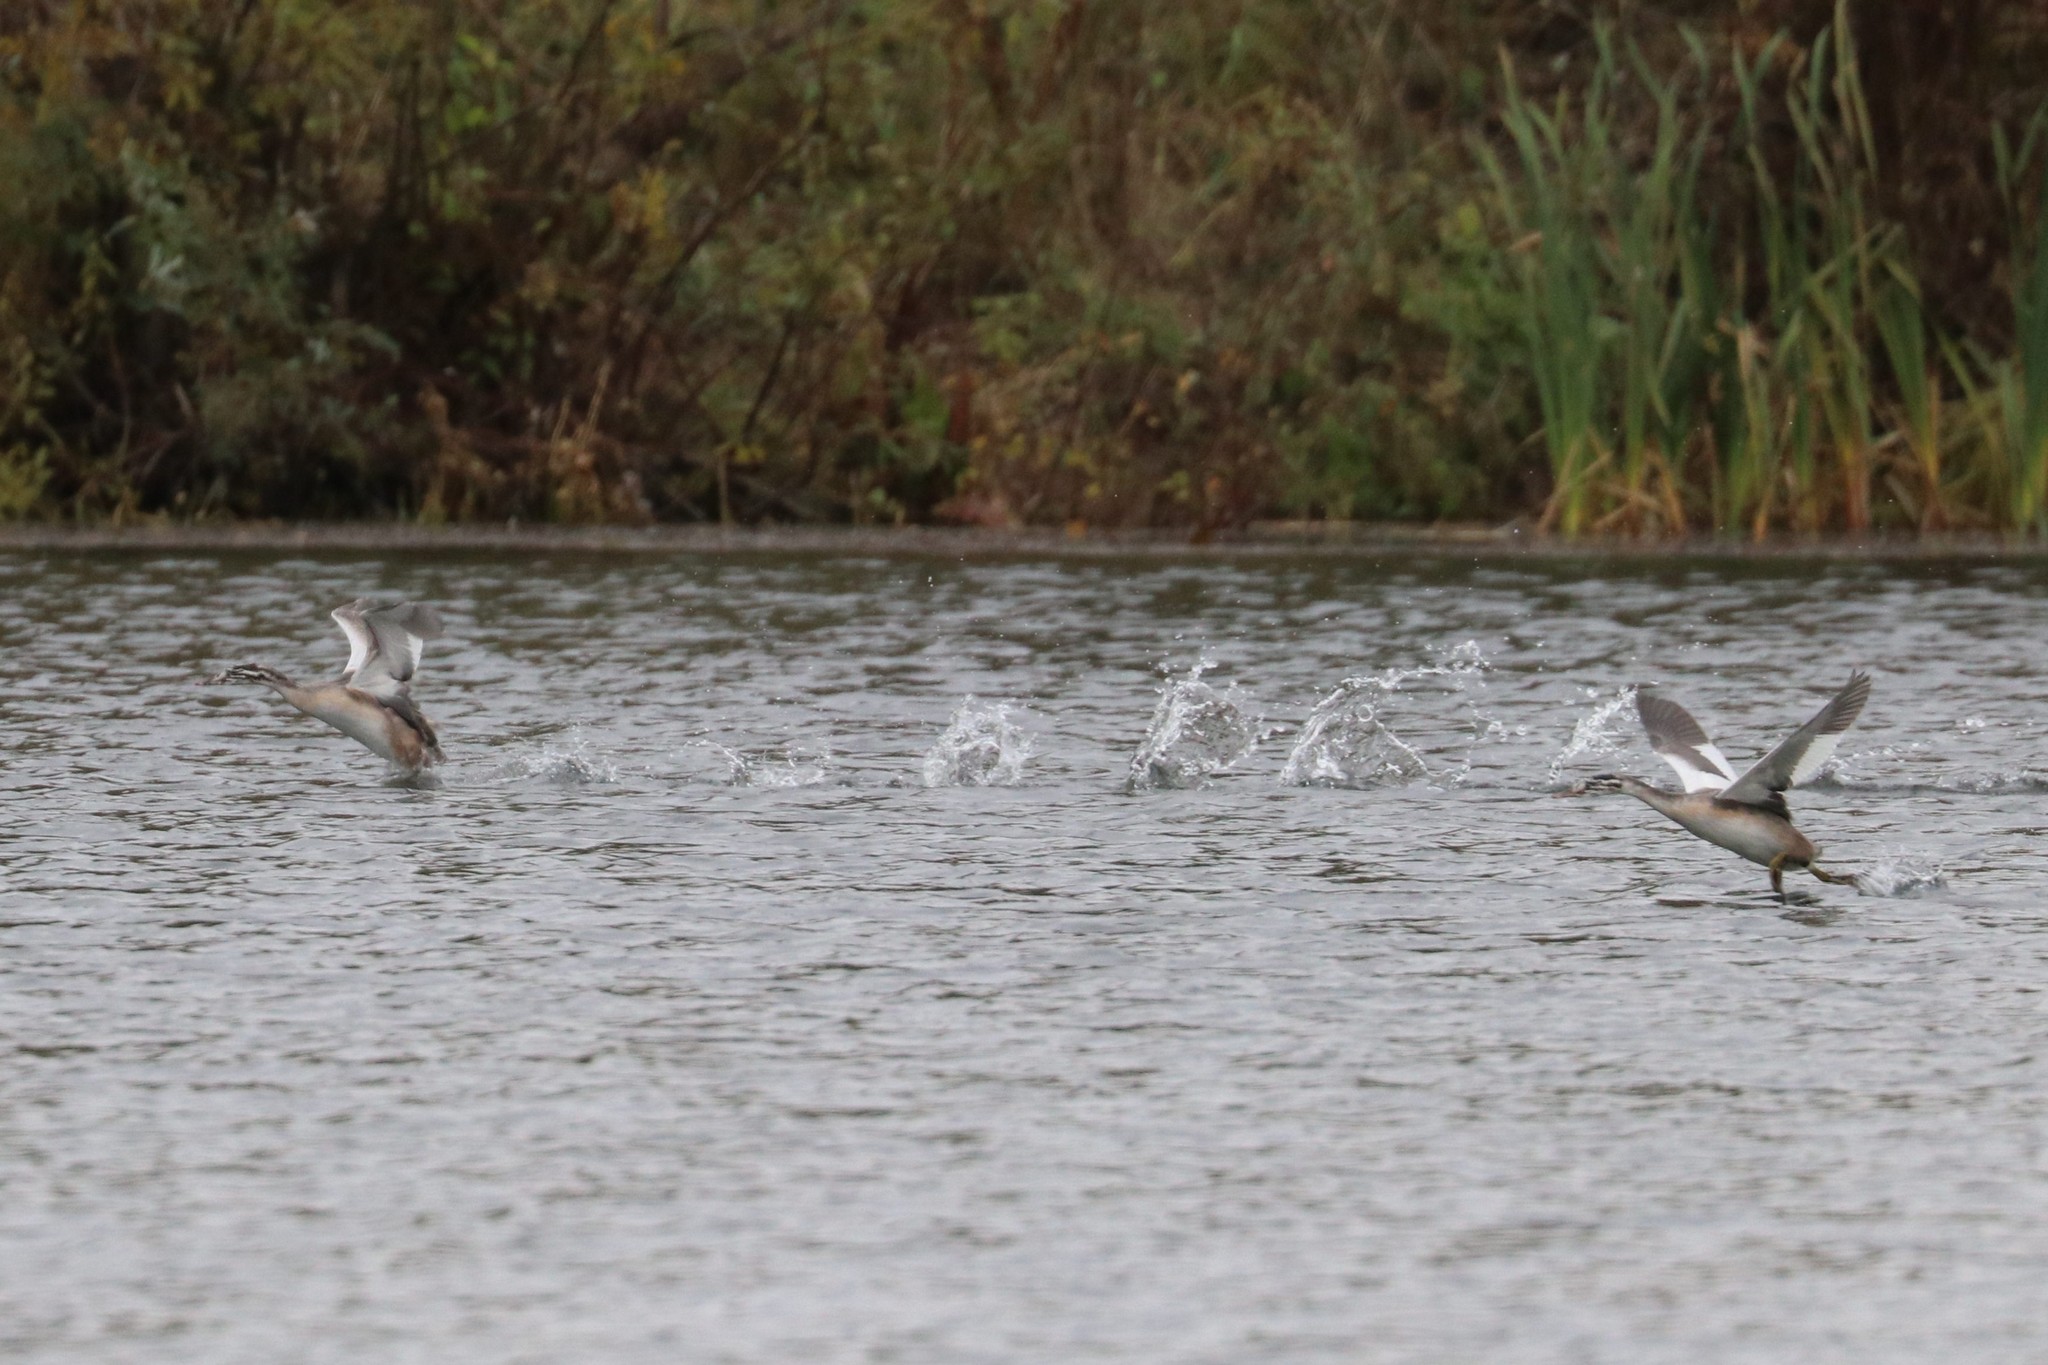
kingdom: Animalia
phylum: Chordata
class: Aves
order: Podicipediformes
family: Podicipedidae
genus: Podiceps
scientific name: Podiceps cristatus
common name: Great crested grebe
